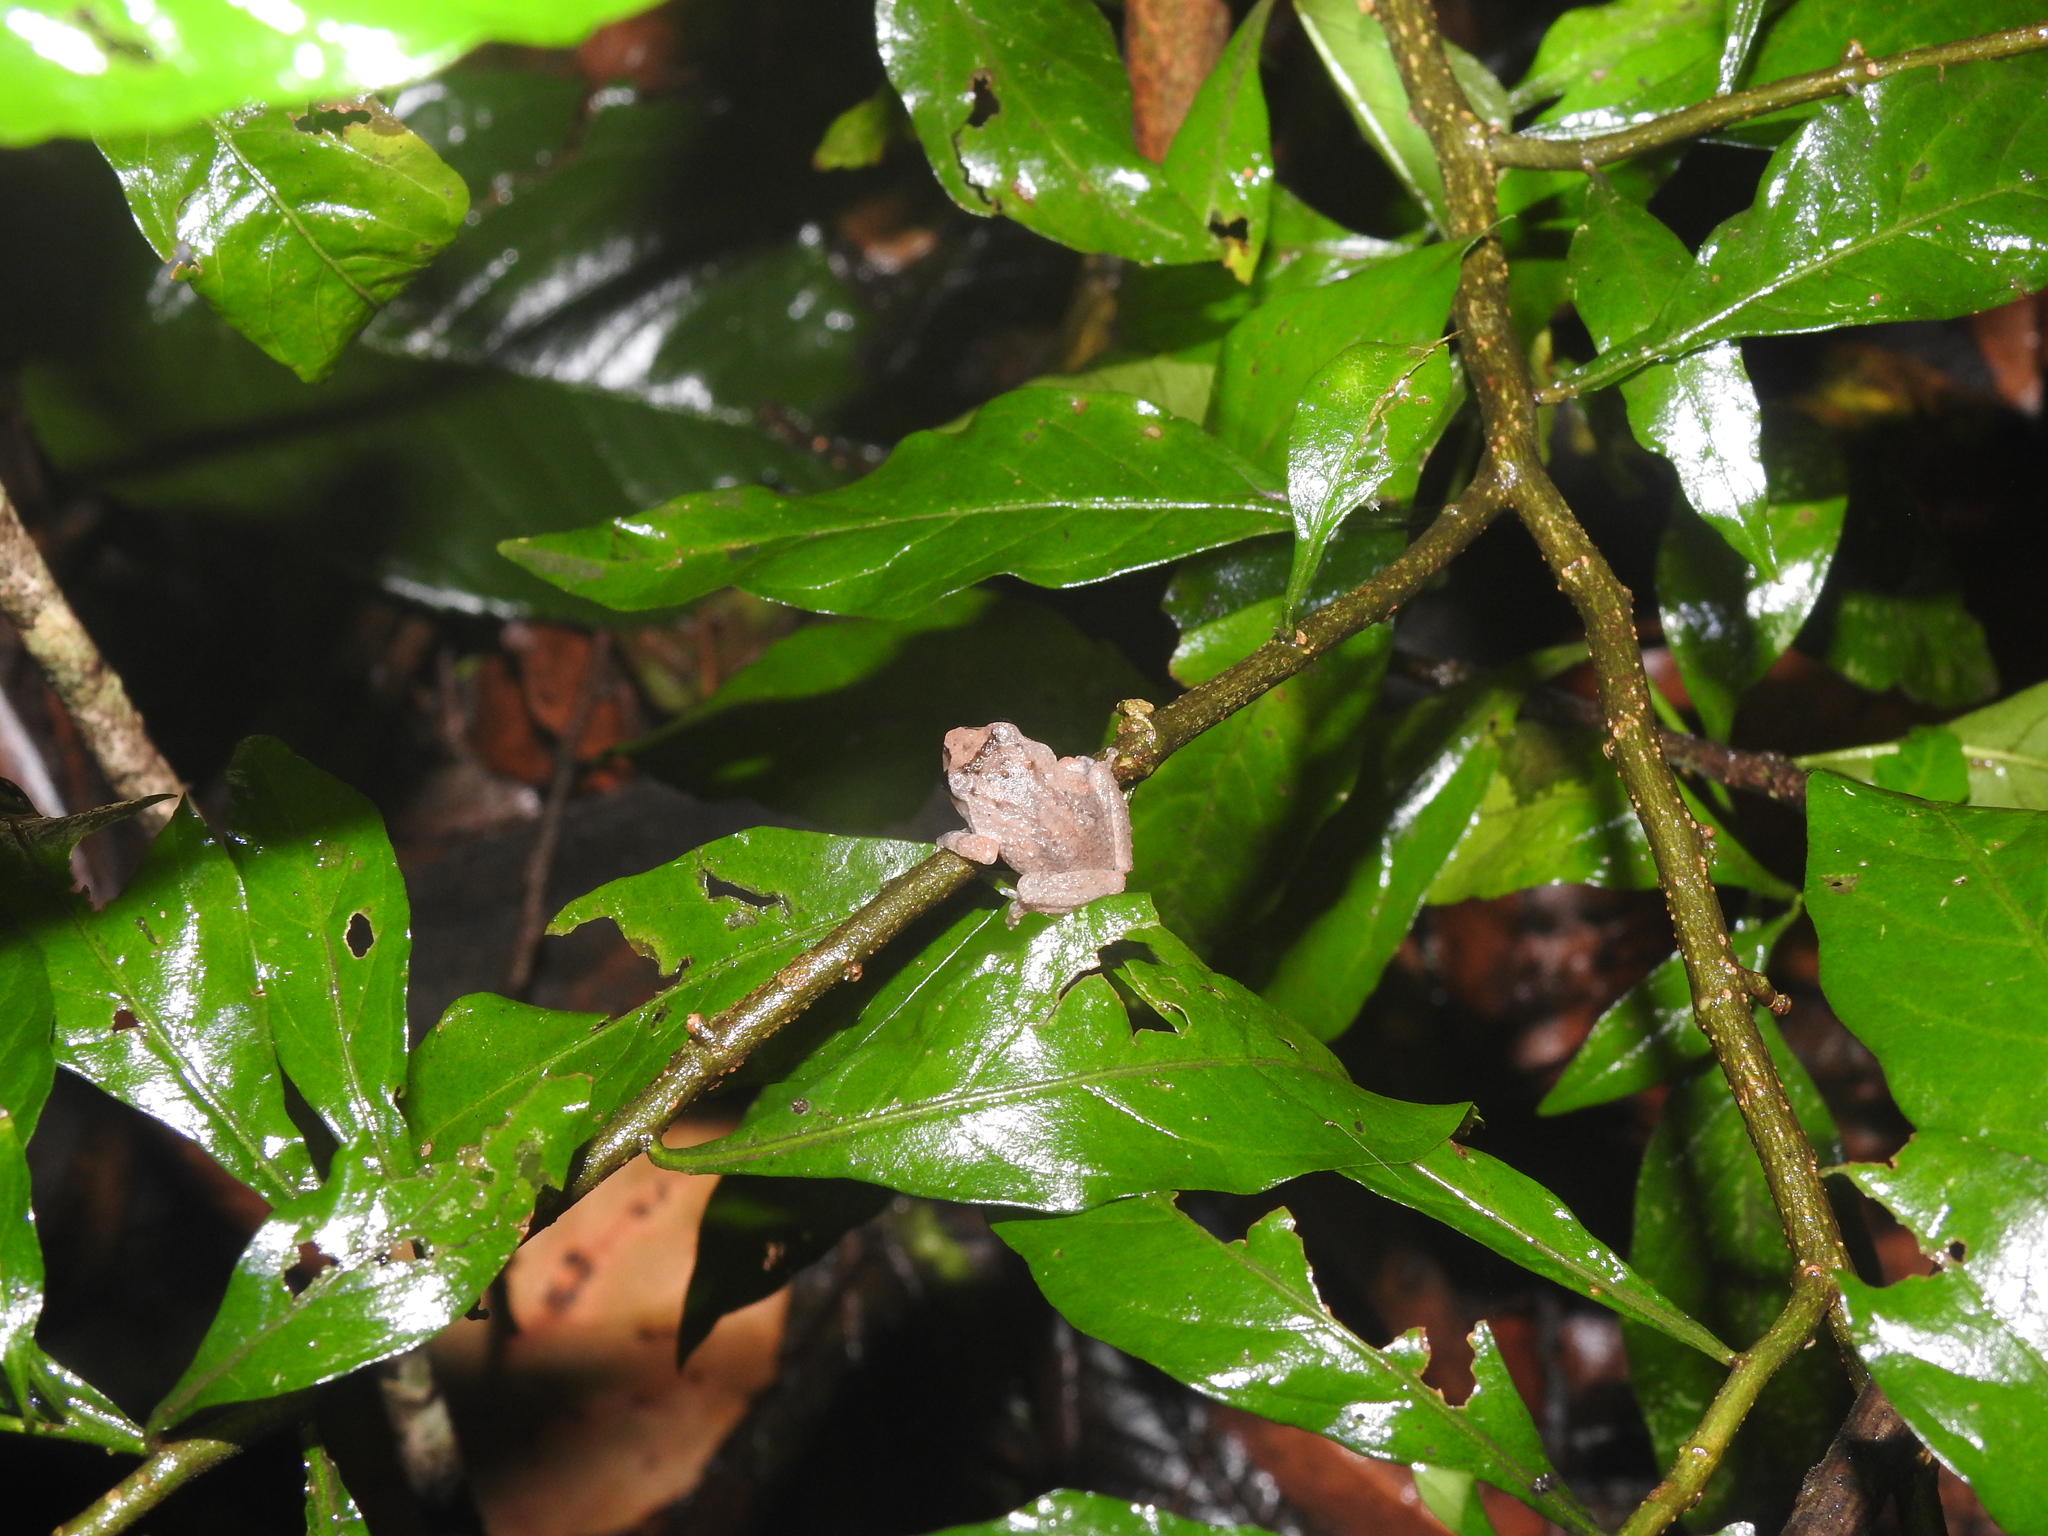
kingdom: Animalia
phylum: Chordata
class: Amphibia
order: Anura
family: Rhacophoridae
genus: Raorchestes
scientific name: Raorchestes dubois
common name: Koadaikanal bush frog
